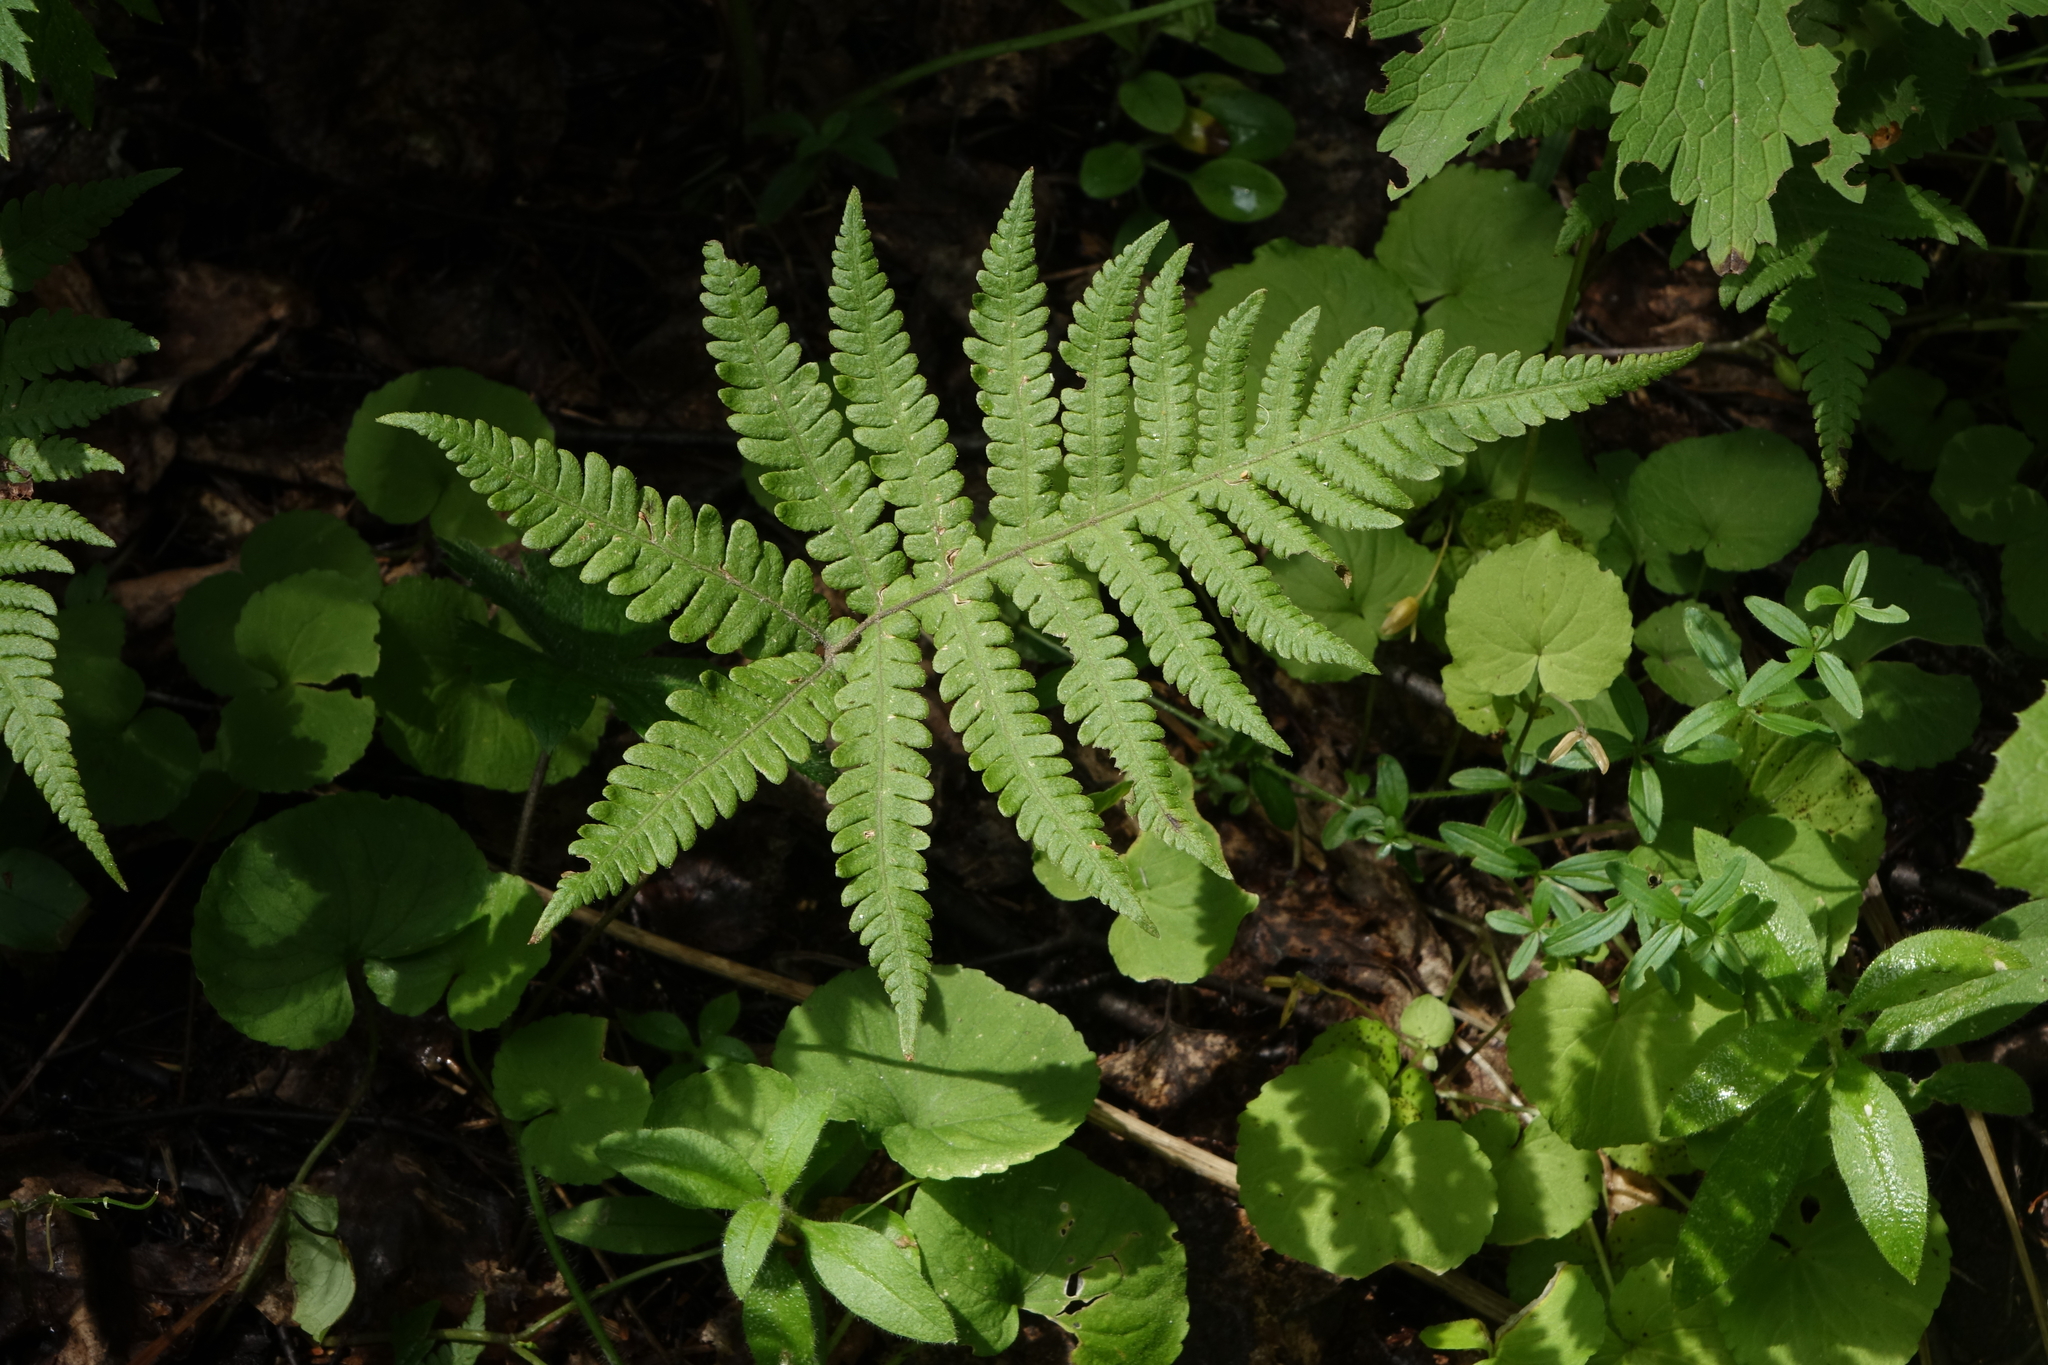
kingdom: Plantae
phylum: Tracheophyta
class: Polypodiopsida
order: Polypodiales
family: Thelypteridaceae
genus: Phegopteris
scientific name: Phegopteris connectilis
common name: Beech fern
